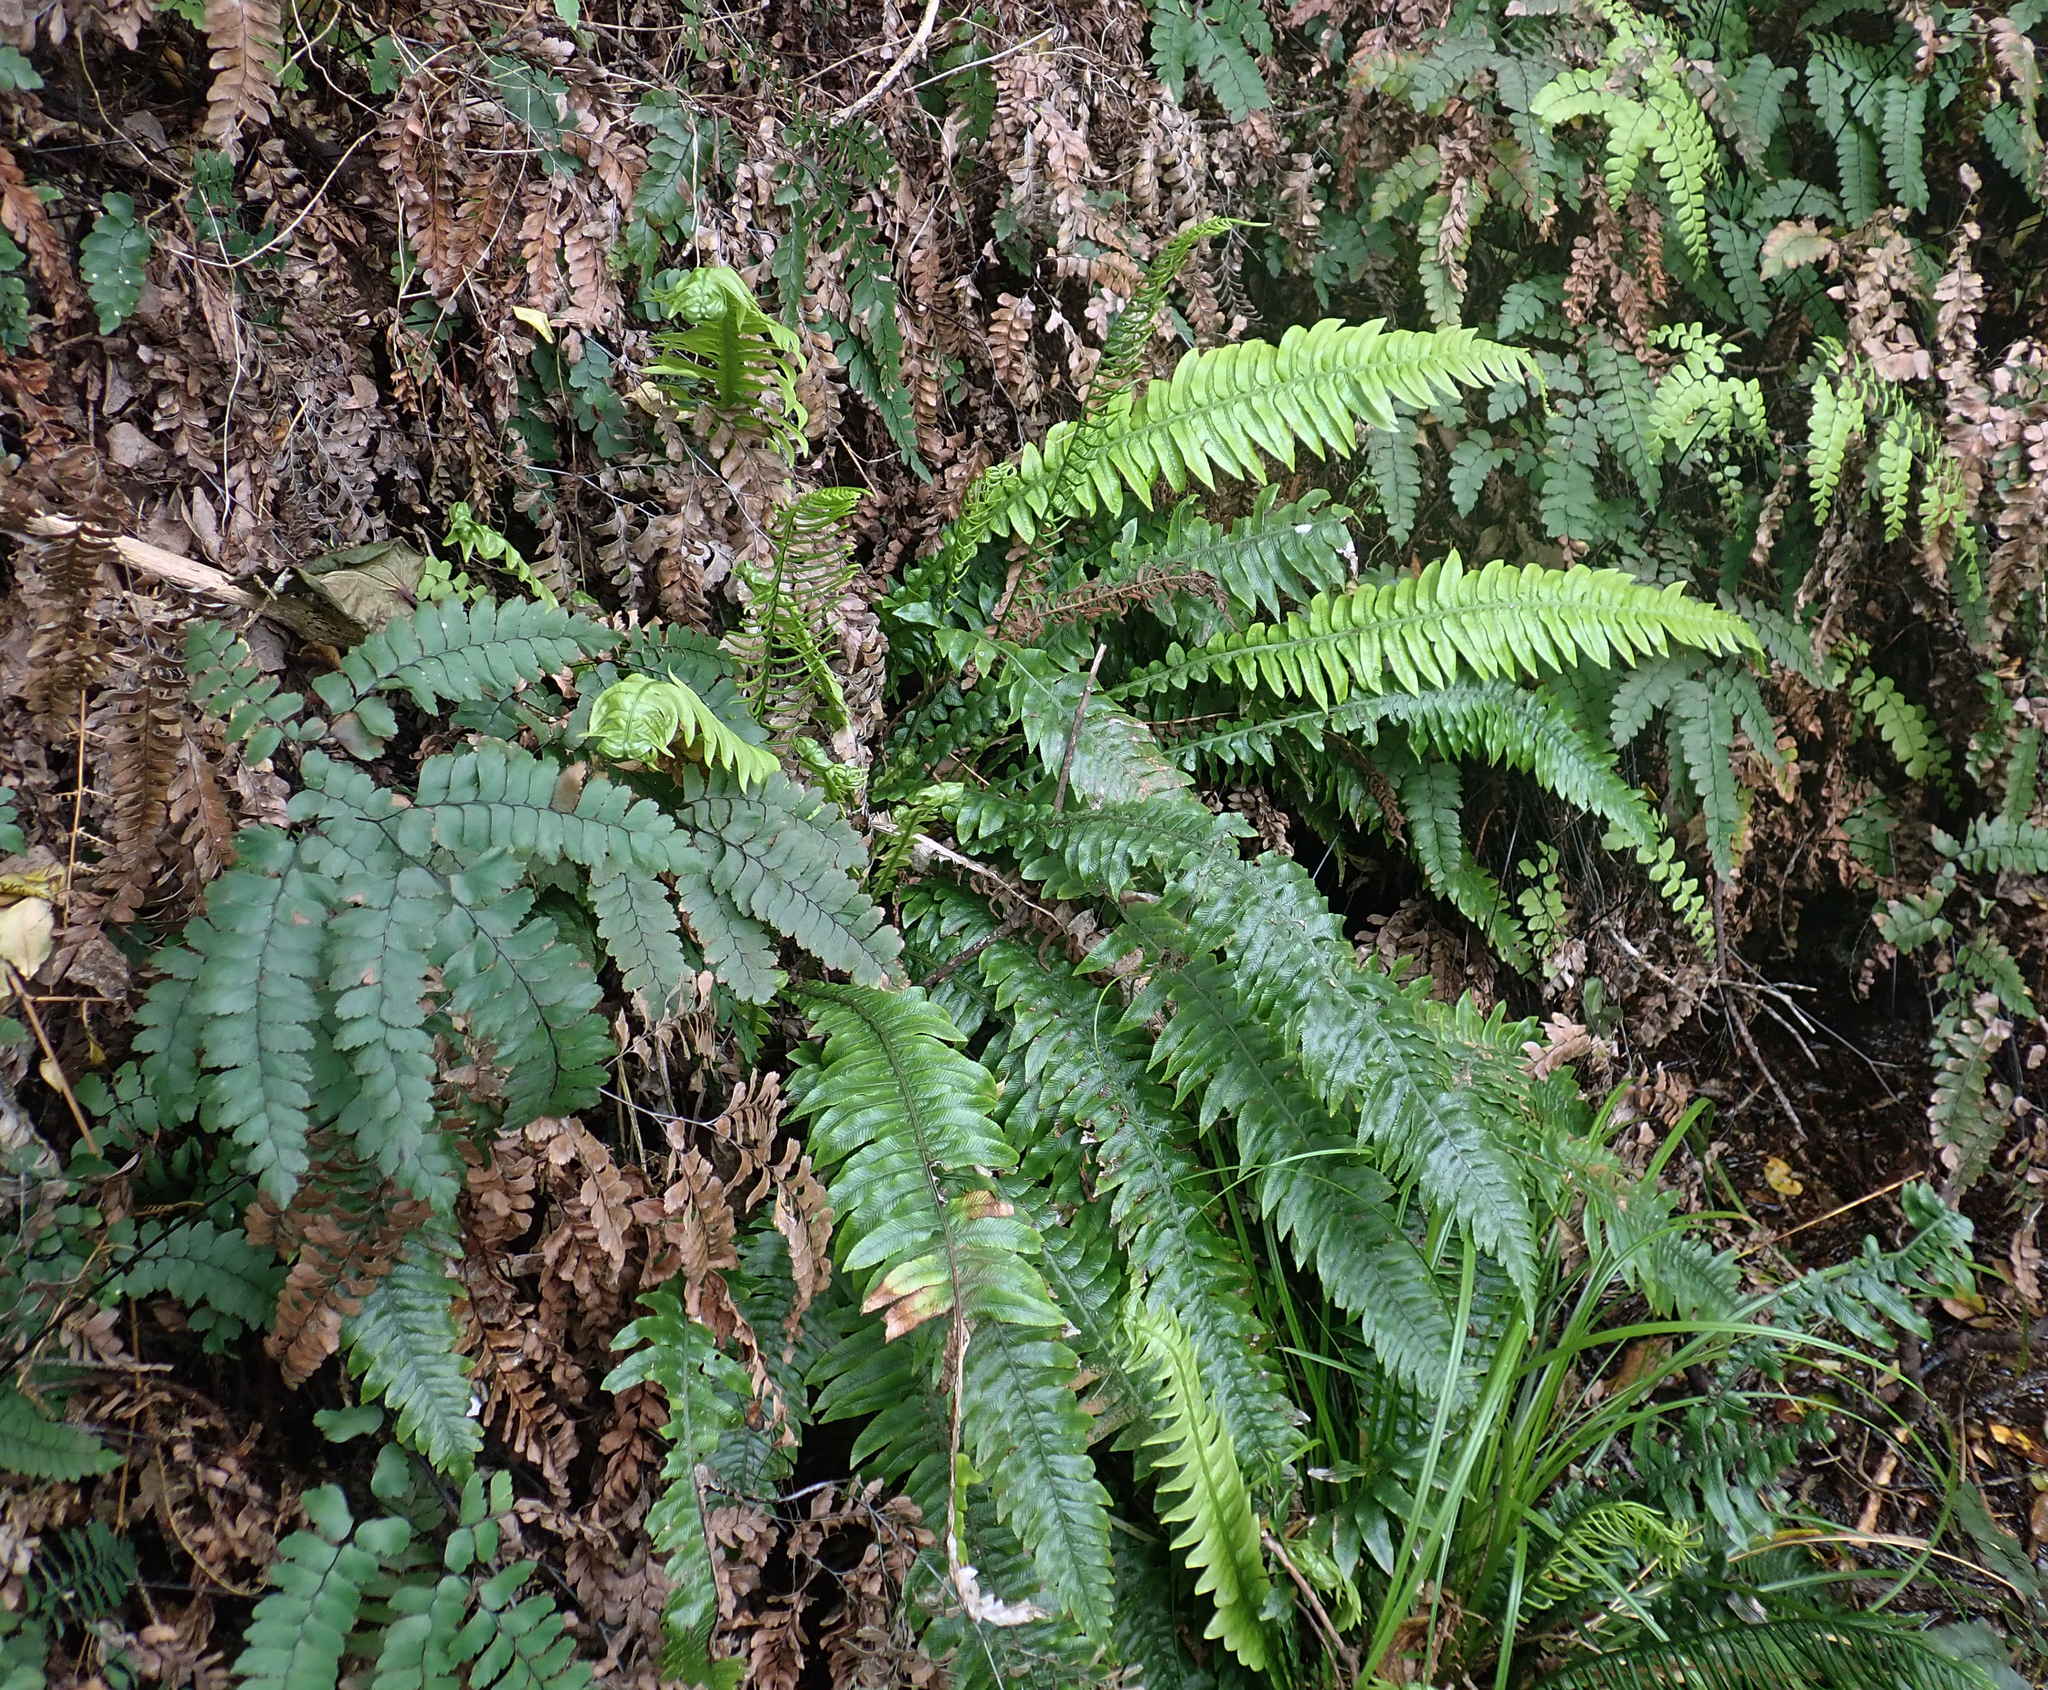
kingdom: Plantae
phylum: Tracheophyta
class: Polypodiopsida
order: Polypodiales
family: Blechnaceae
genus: Austroblechnum
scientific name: Austroblechnum lanceolatum
